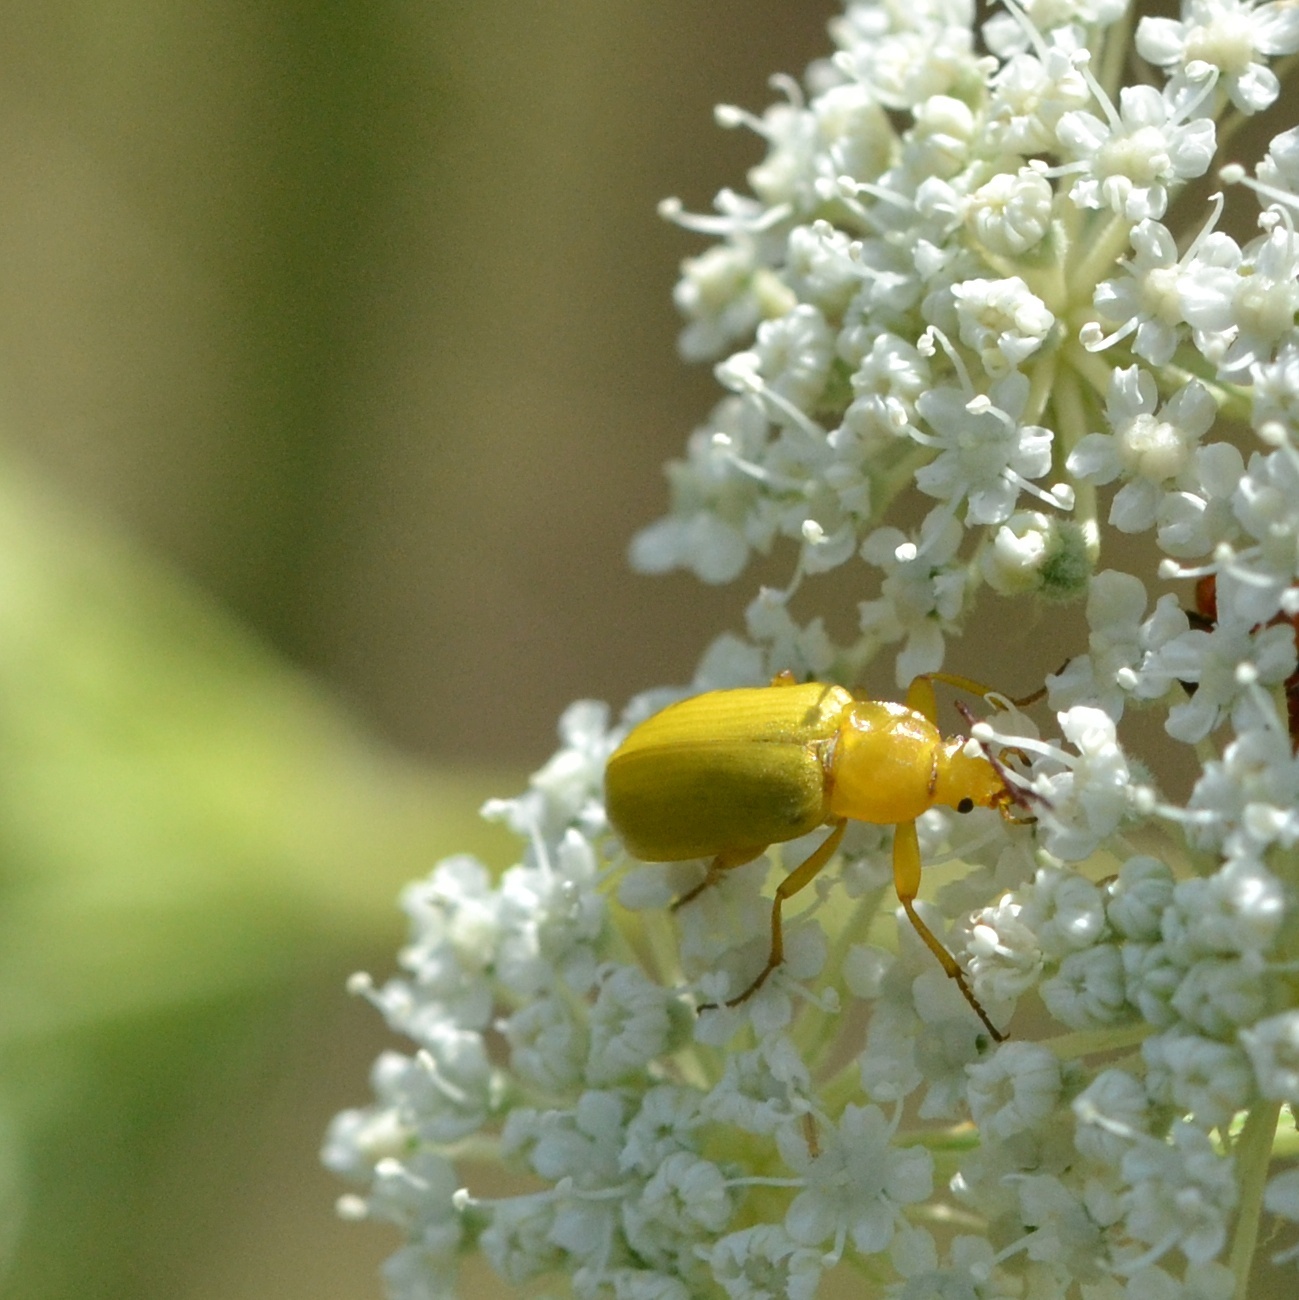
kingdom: Animalia
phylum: Arthropoda
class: Insecta
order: Coleoptera
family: Tenebrionidae
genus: Cteniopus
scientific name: Cteniopus sulphureus
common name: Sulphur beetle
